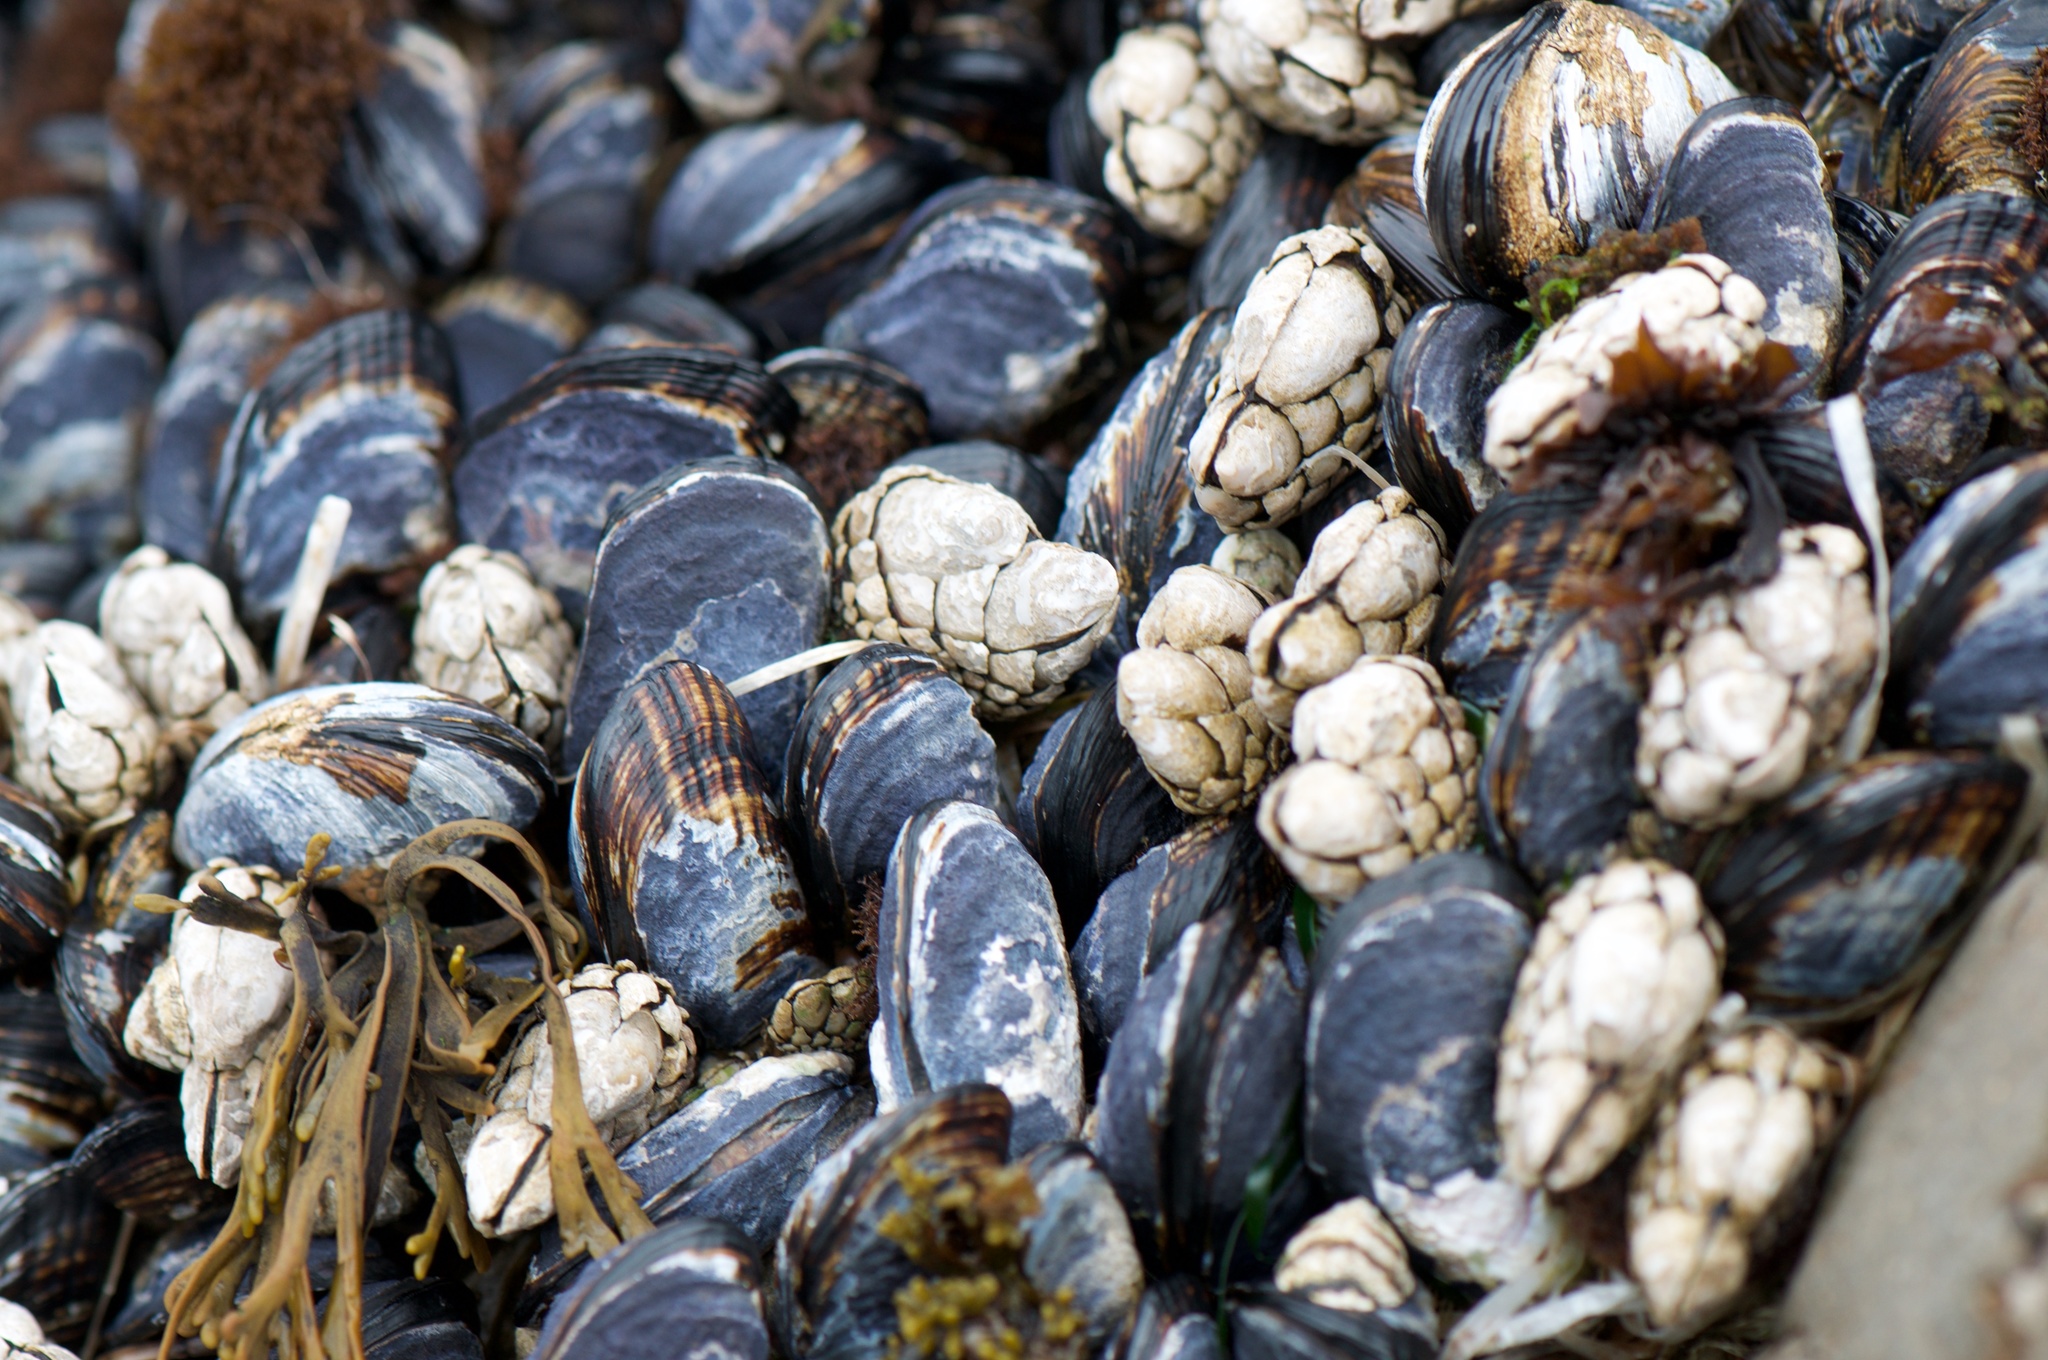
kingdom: Animalia
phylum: Mollusca
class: Bivalvia
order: Mytilida
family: Mytilidae
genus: Mytilus
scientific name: Mytilus californianus
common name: California mussel
